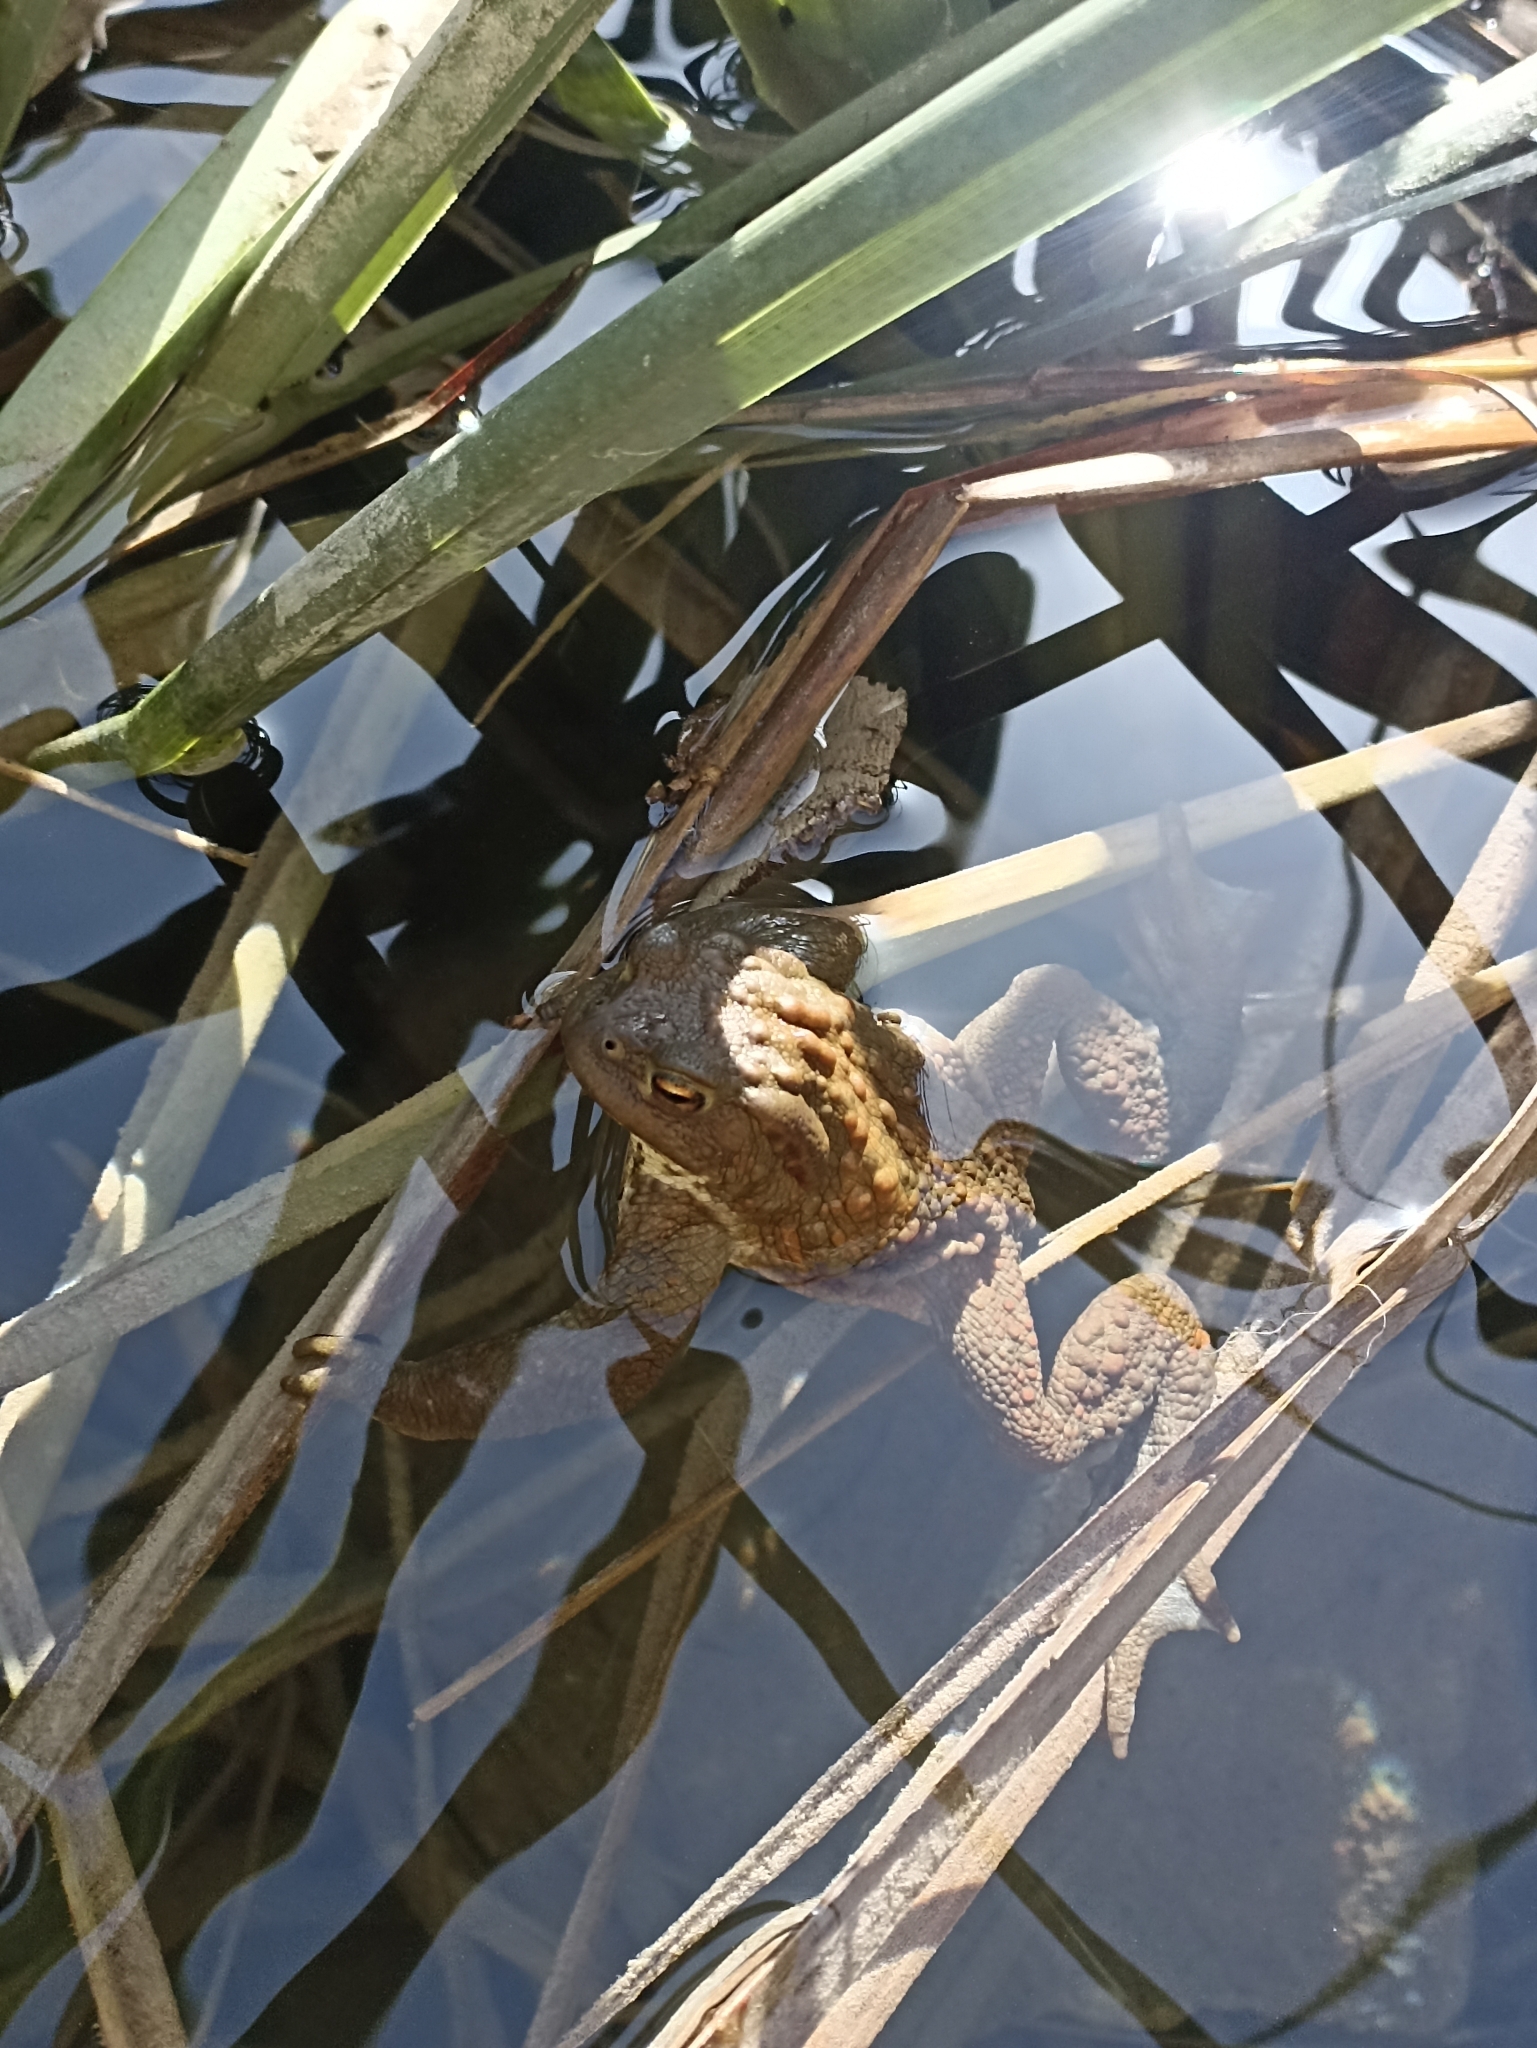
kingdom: Animalia
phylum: Chordata
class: Amphibia
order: Anura
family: Bufonidae
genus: Bufo
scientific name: Bufo bufo
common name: Common toad
